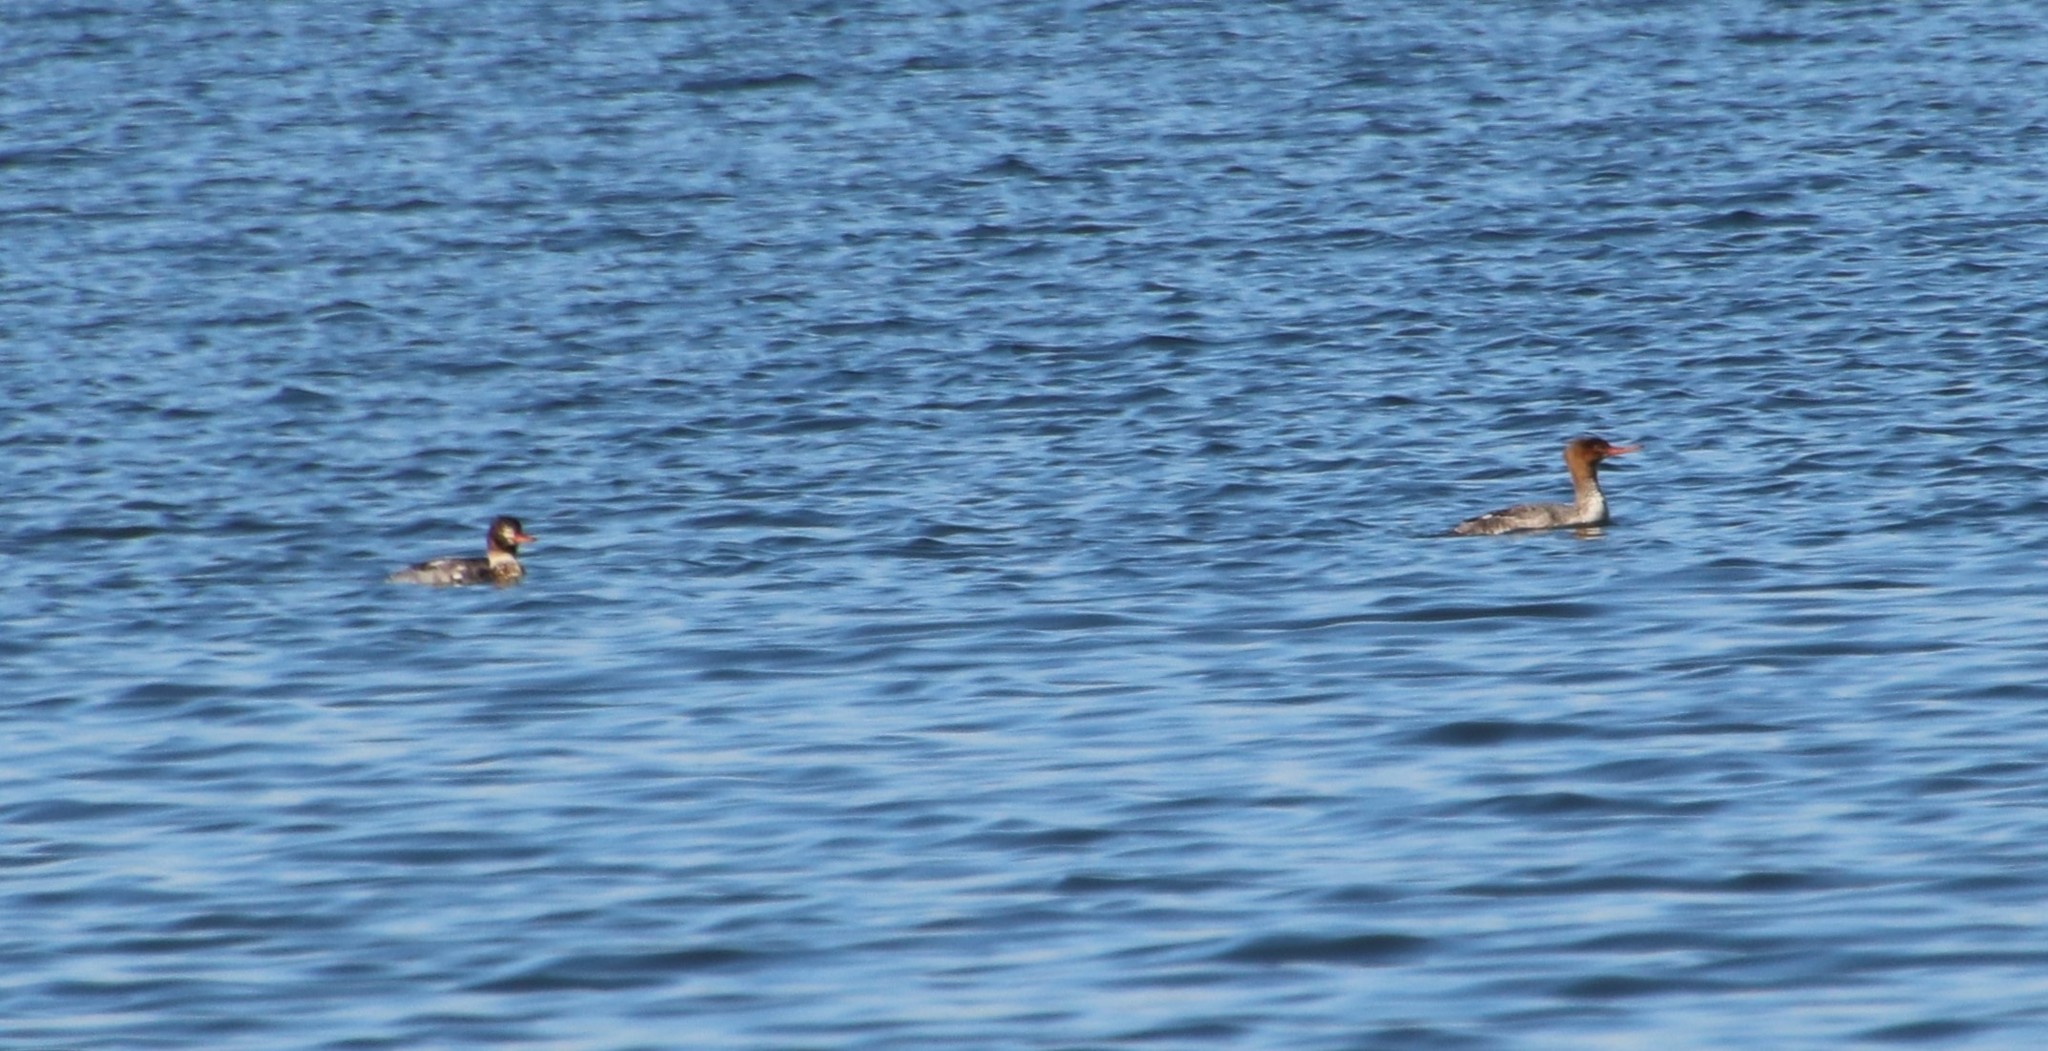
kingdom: Animalia
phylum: Chordata
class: Aves
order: Anseriformes
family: Anatidae
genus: Mergus
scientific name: Mergus serrator
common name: Red-breasted merganser
